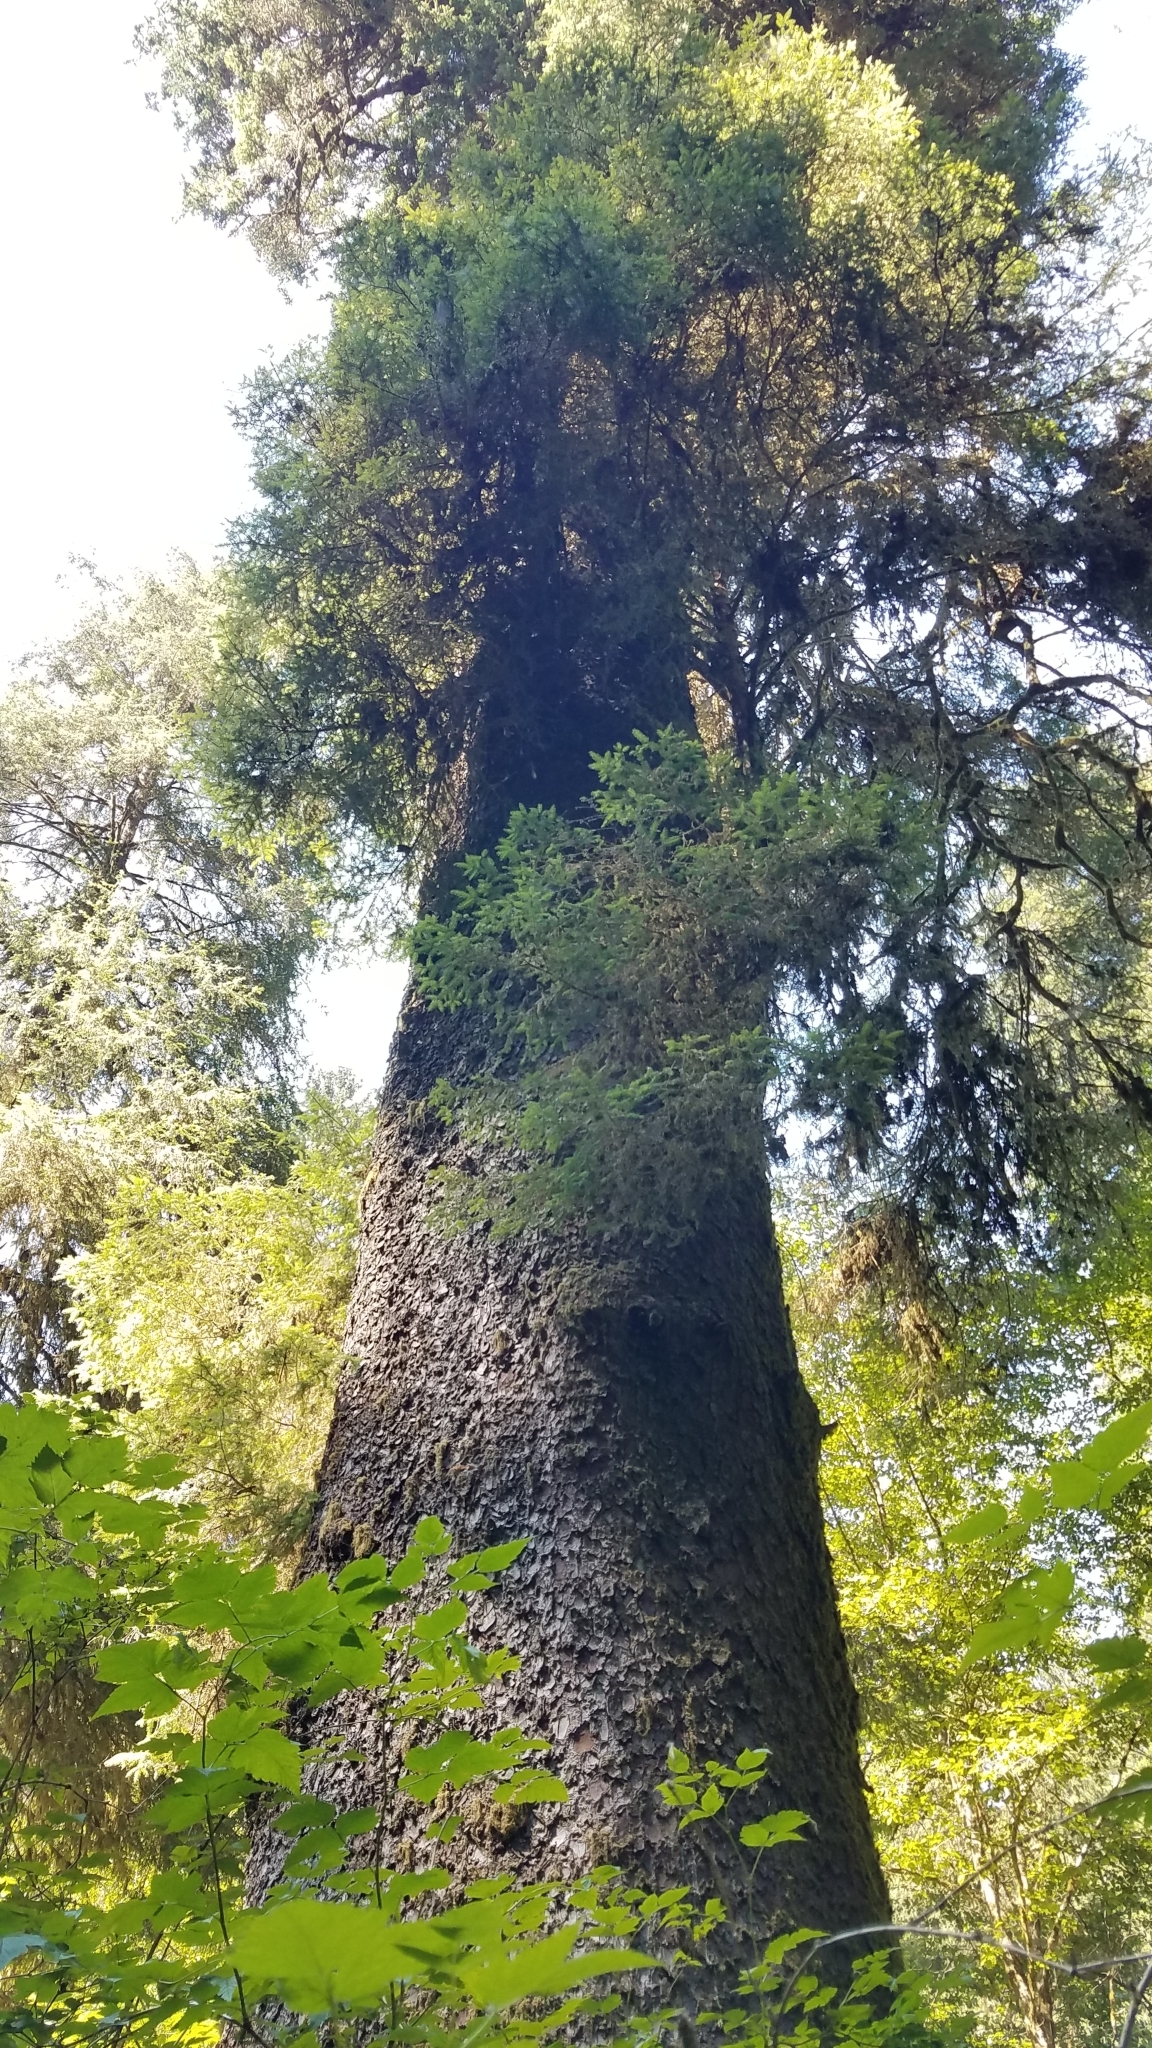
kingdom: Plantae
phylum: Tracheophyta
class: Pinopsida
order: Pinales
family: Pinaceae
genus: Picea
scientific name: Picea sitchensis
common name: Sitka spruce
